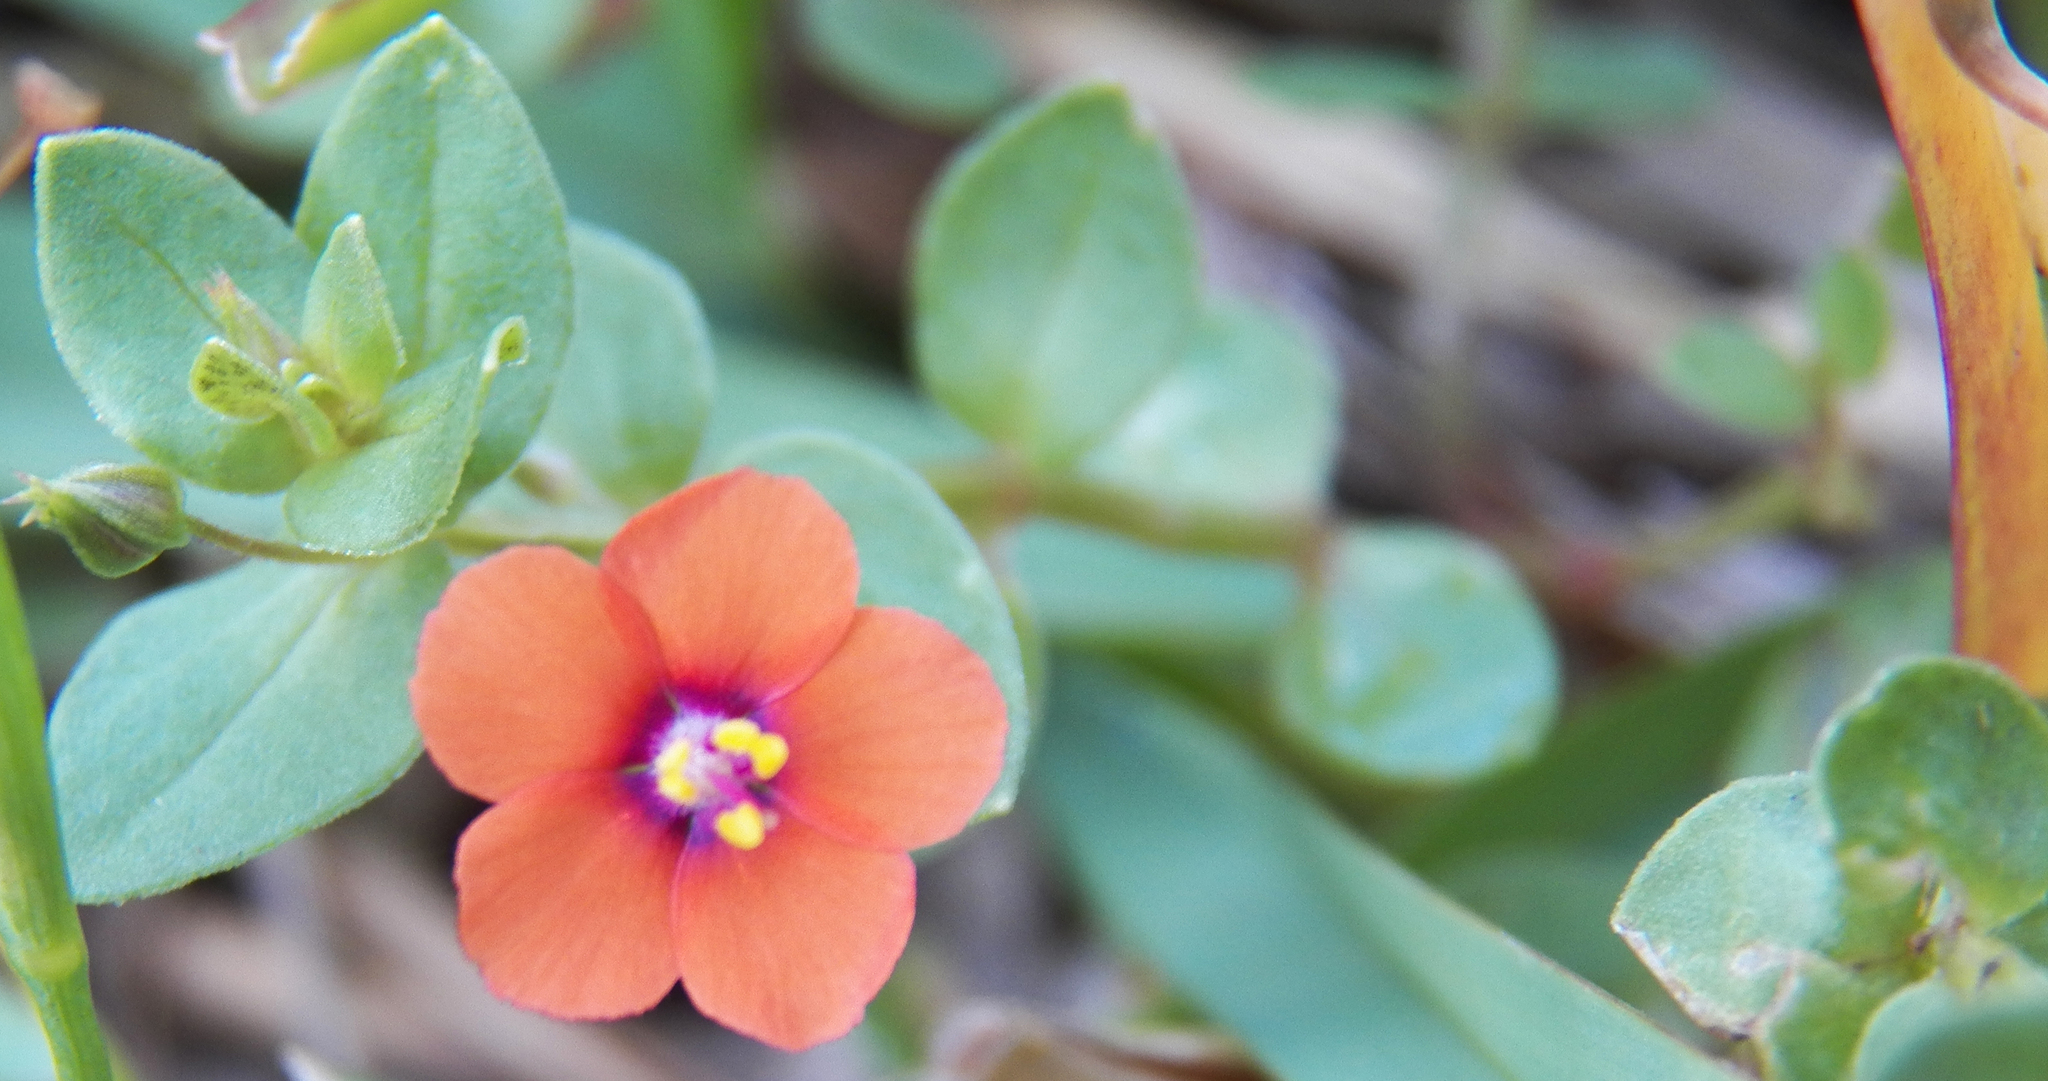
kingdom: Plantae
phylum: Tracheophyta
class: Magnoliopsida
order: Ericales
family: Primulaceae
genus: Lysimachia
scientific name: Lysimachia arvensis
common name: Scarlet pimpernel
